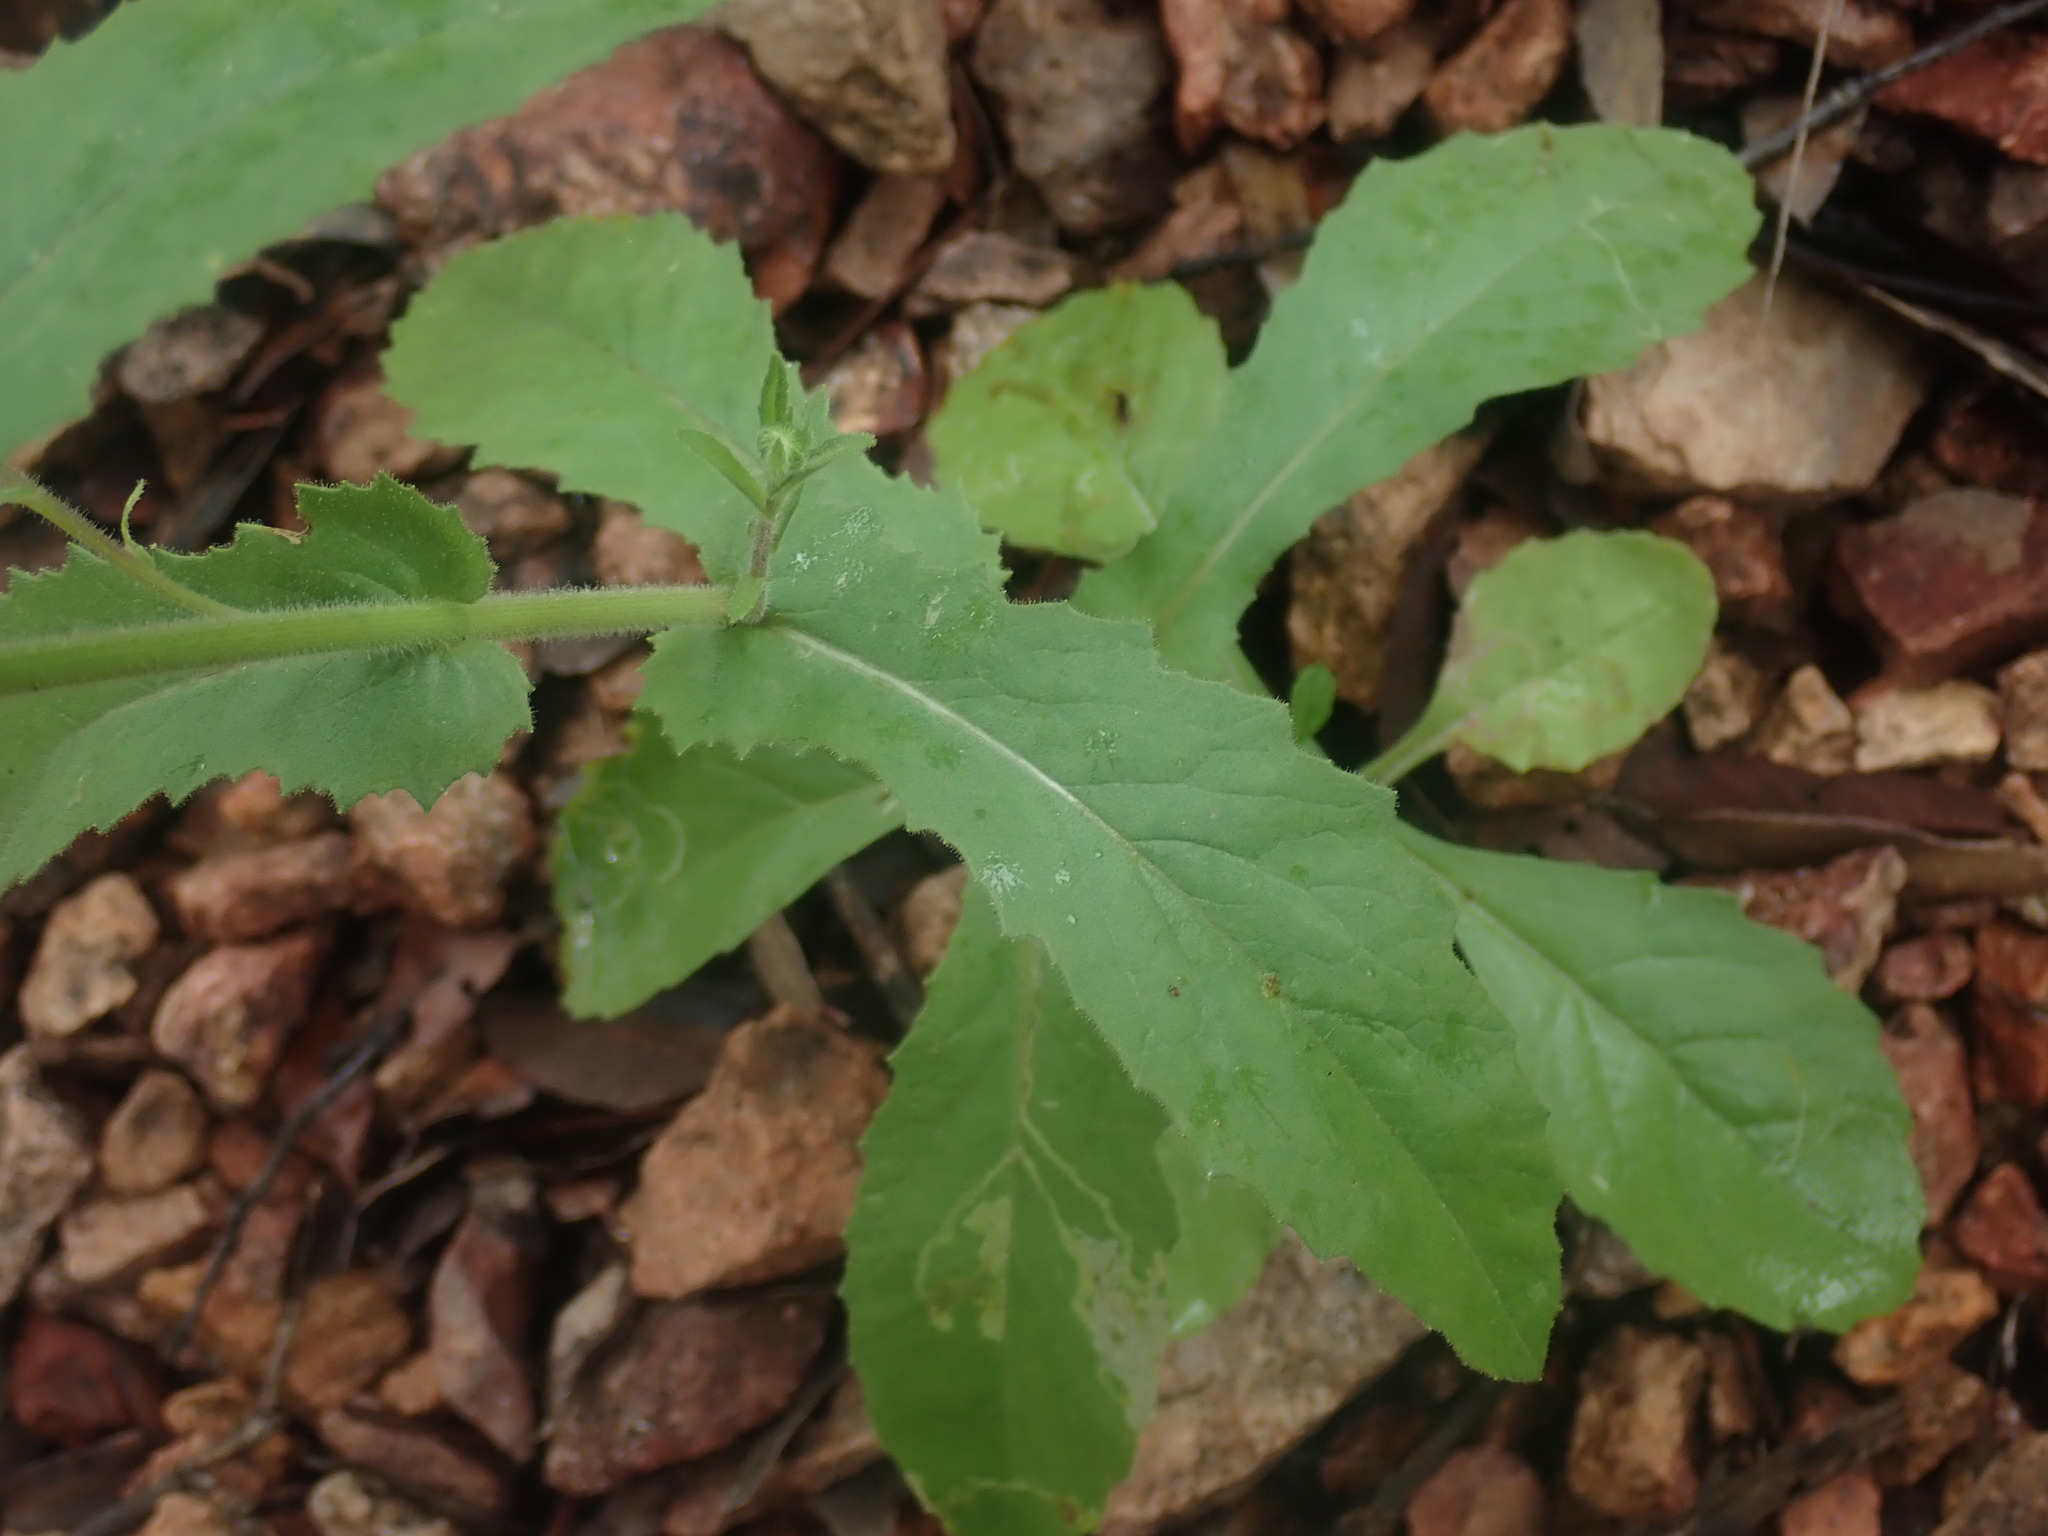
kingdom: Plantae
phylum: Tracheophyta
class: Magnoliopsida
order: Asterales
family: Asteraceae
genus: Senecio
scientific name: Senecio parryi
